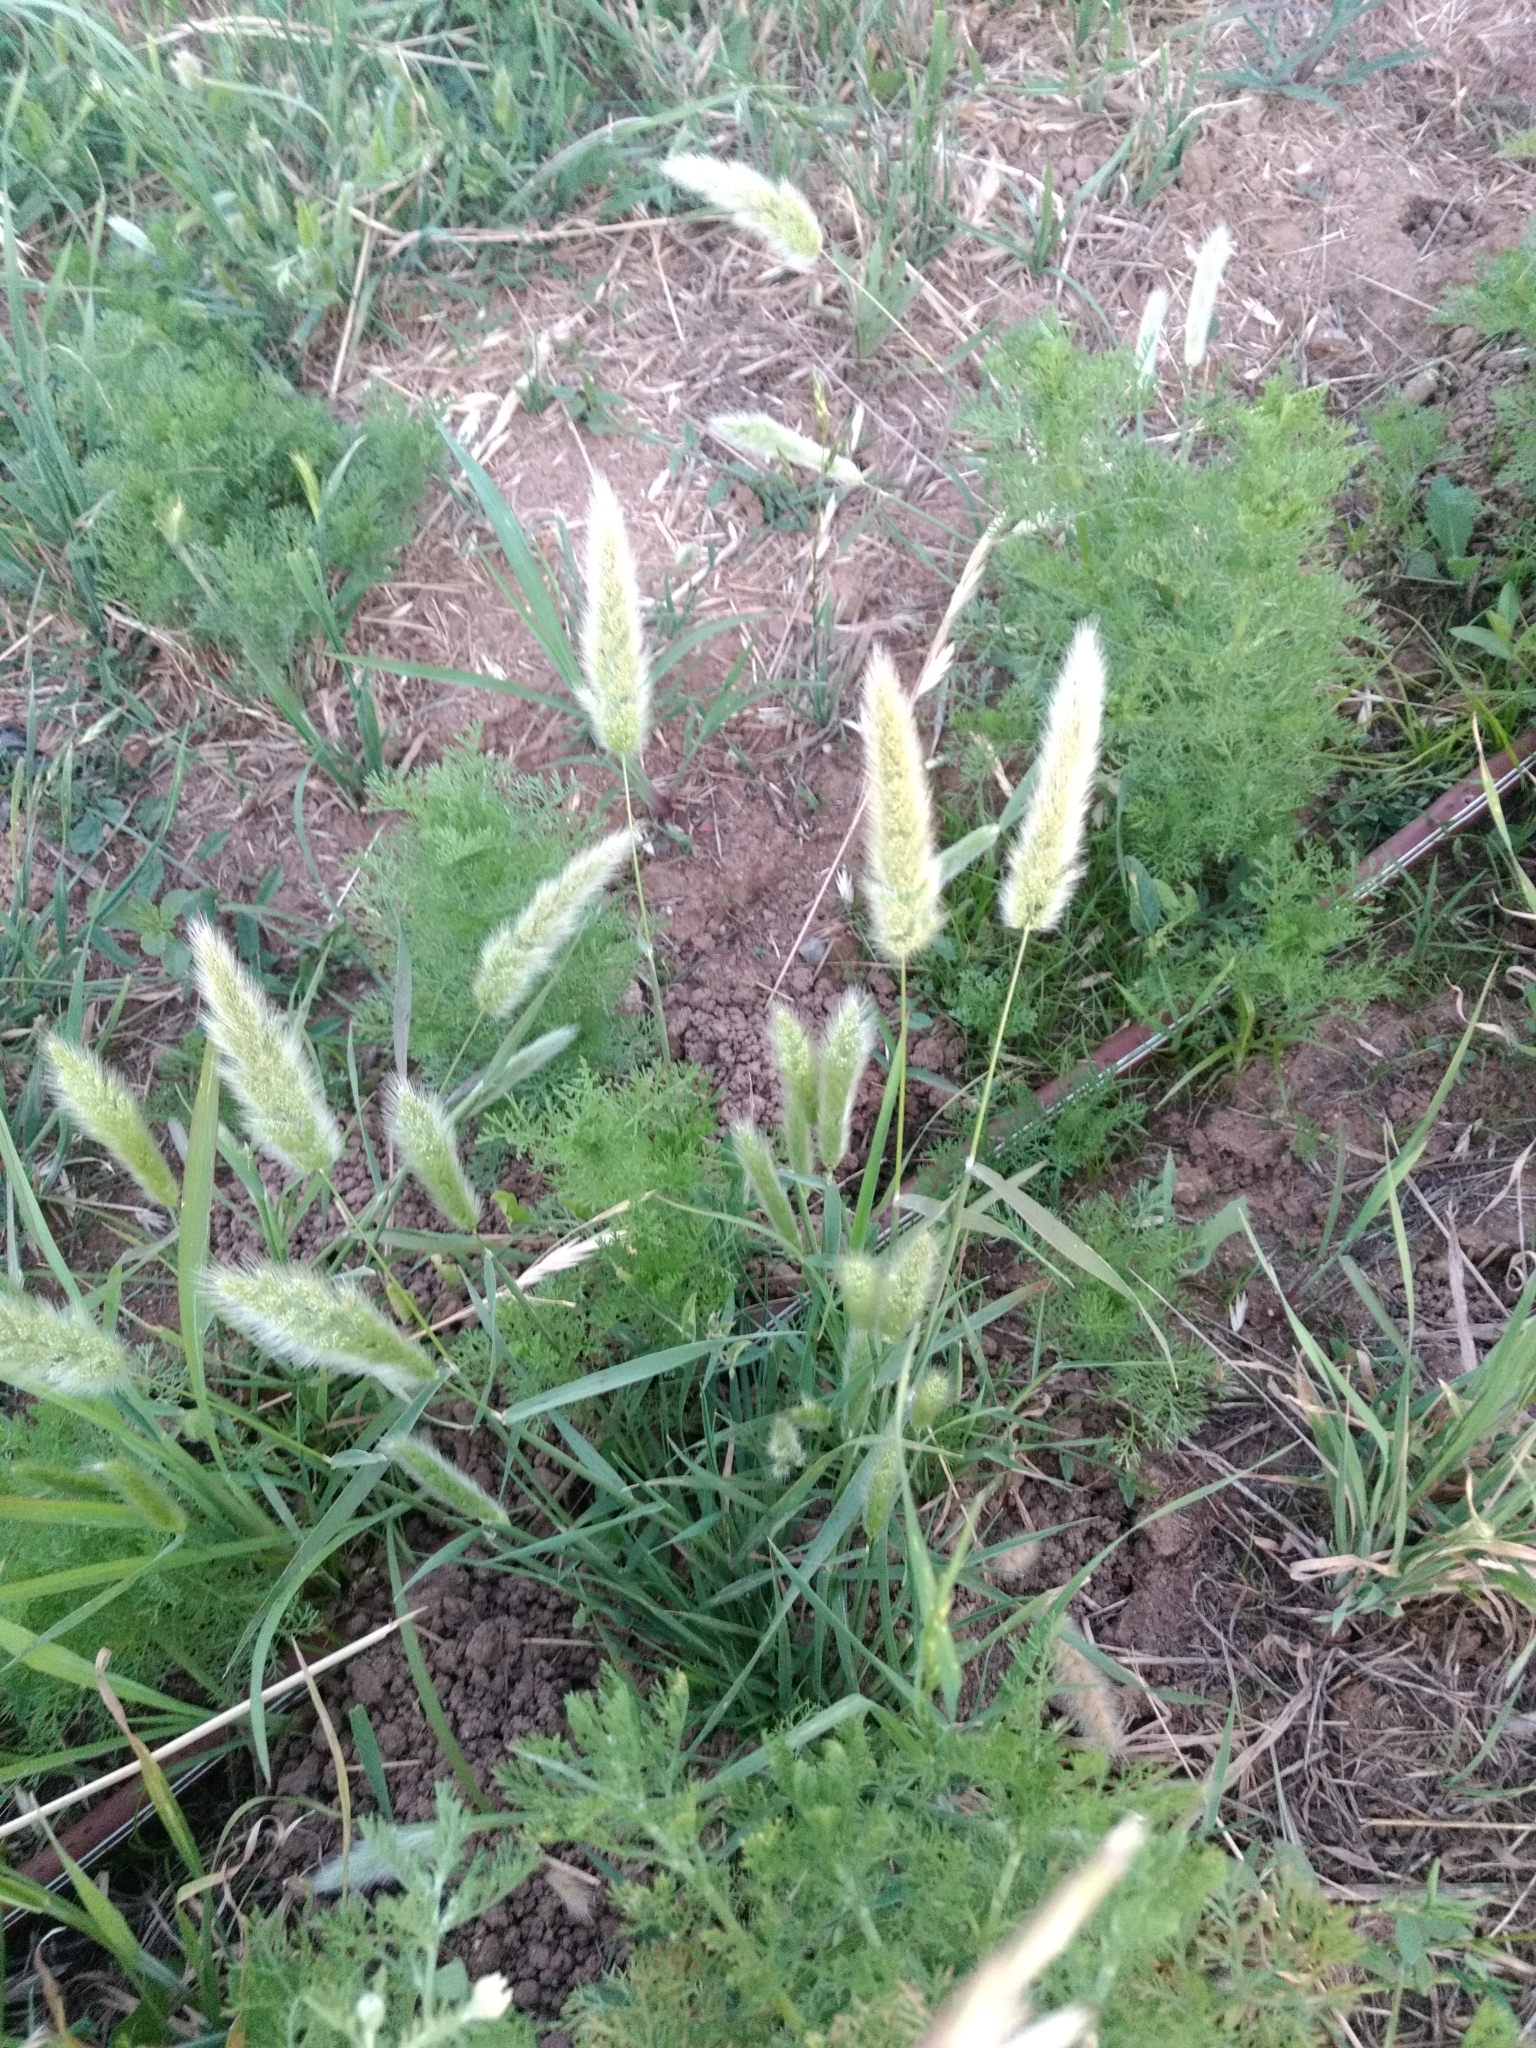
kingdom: Plantae
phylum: Tracheophyta
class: Liliopsida
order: Poales
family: Poaceae
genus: Polypogon
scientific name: Polypogon monspeliensis
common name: Annual rabbitsfoot grass
